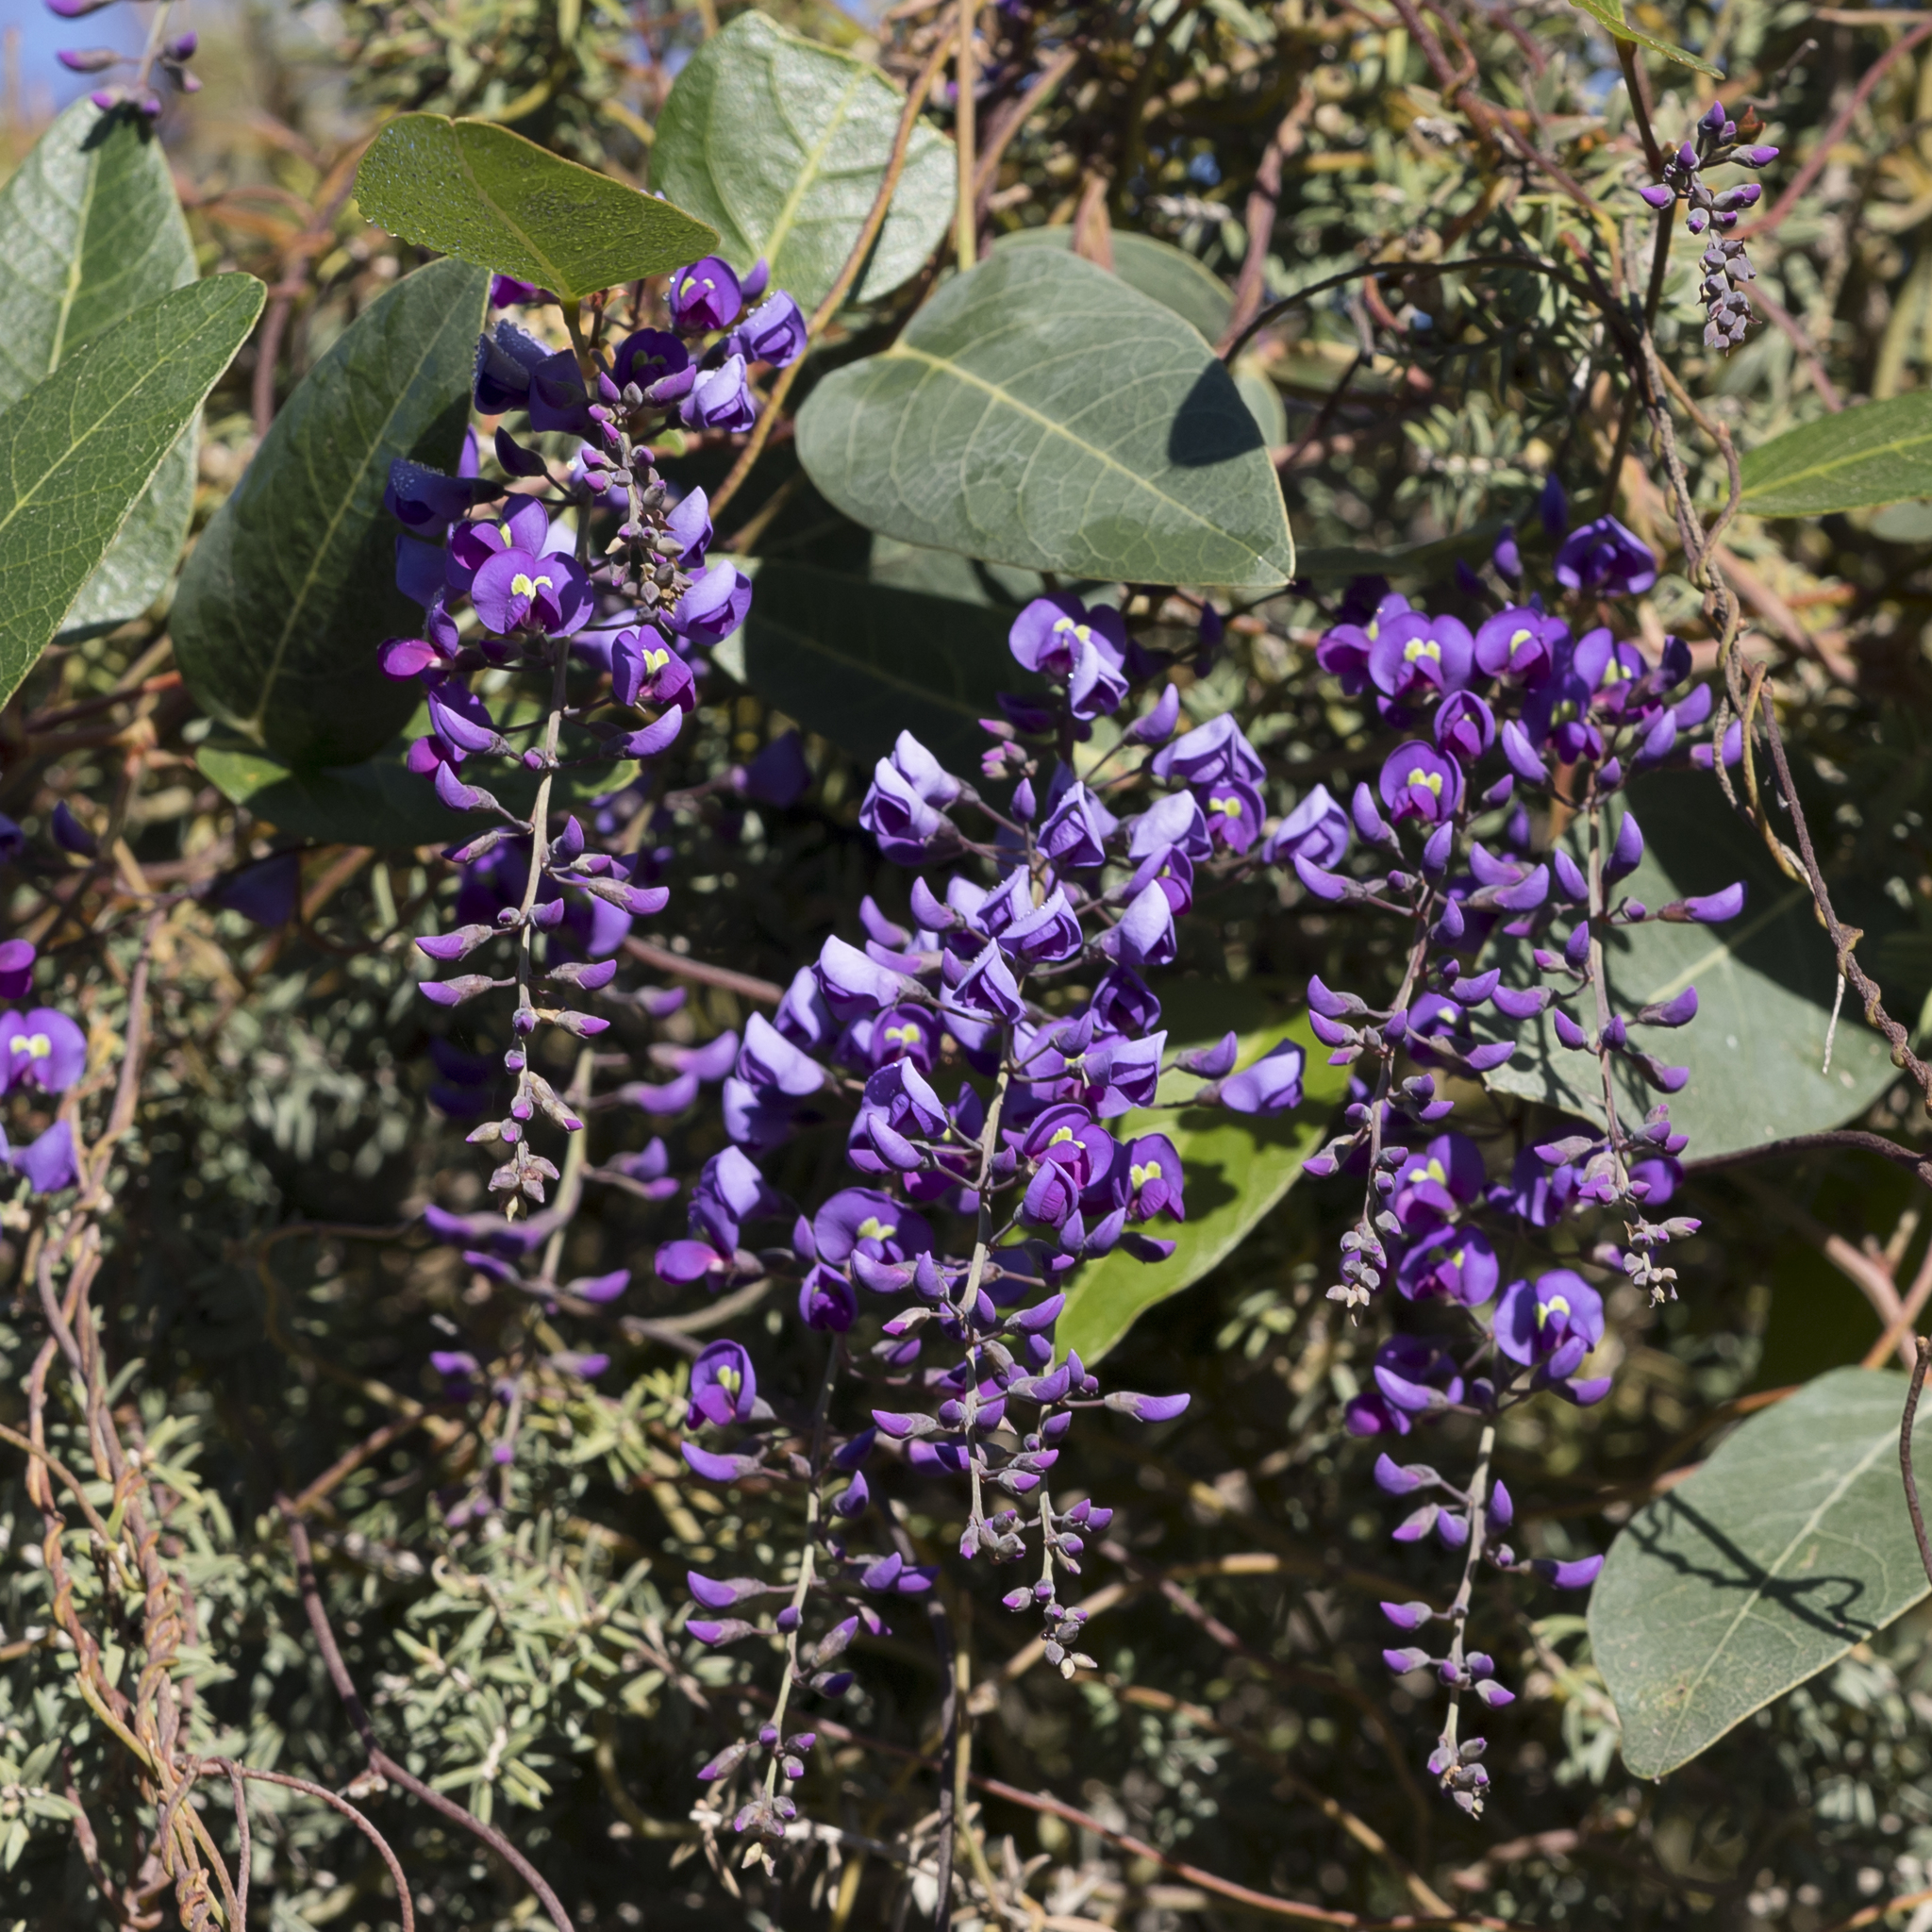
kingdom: Plantae
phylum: Tracheophyta
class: Magnoliopsida
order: Fabales
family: Fabaceae
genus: Hardenbergia
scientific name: Hardenbergia violacea
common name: Coral-pea
